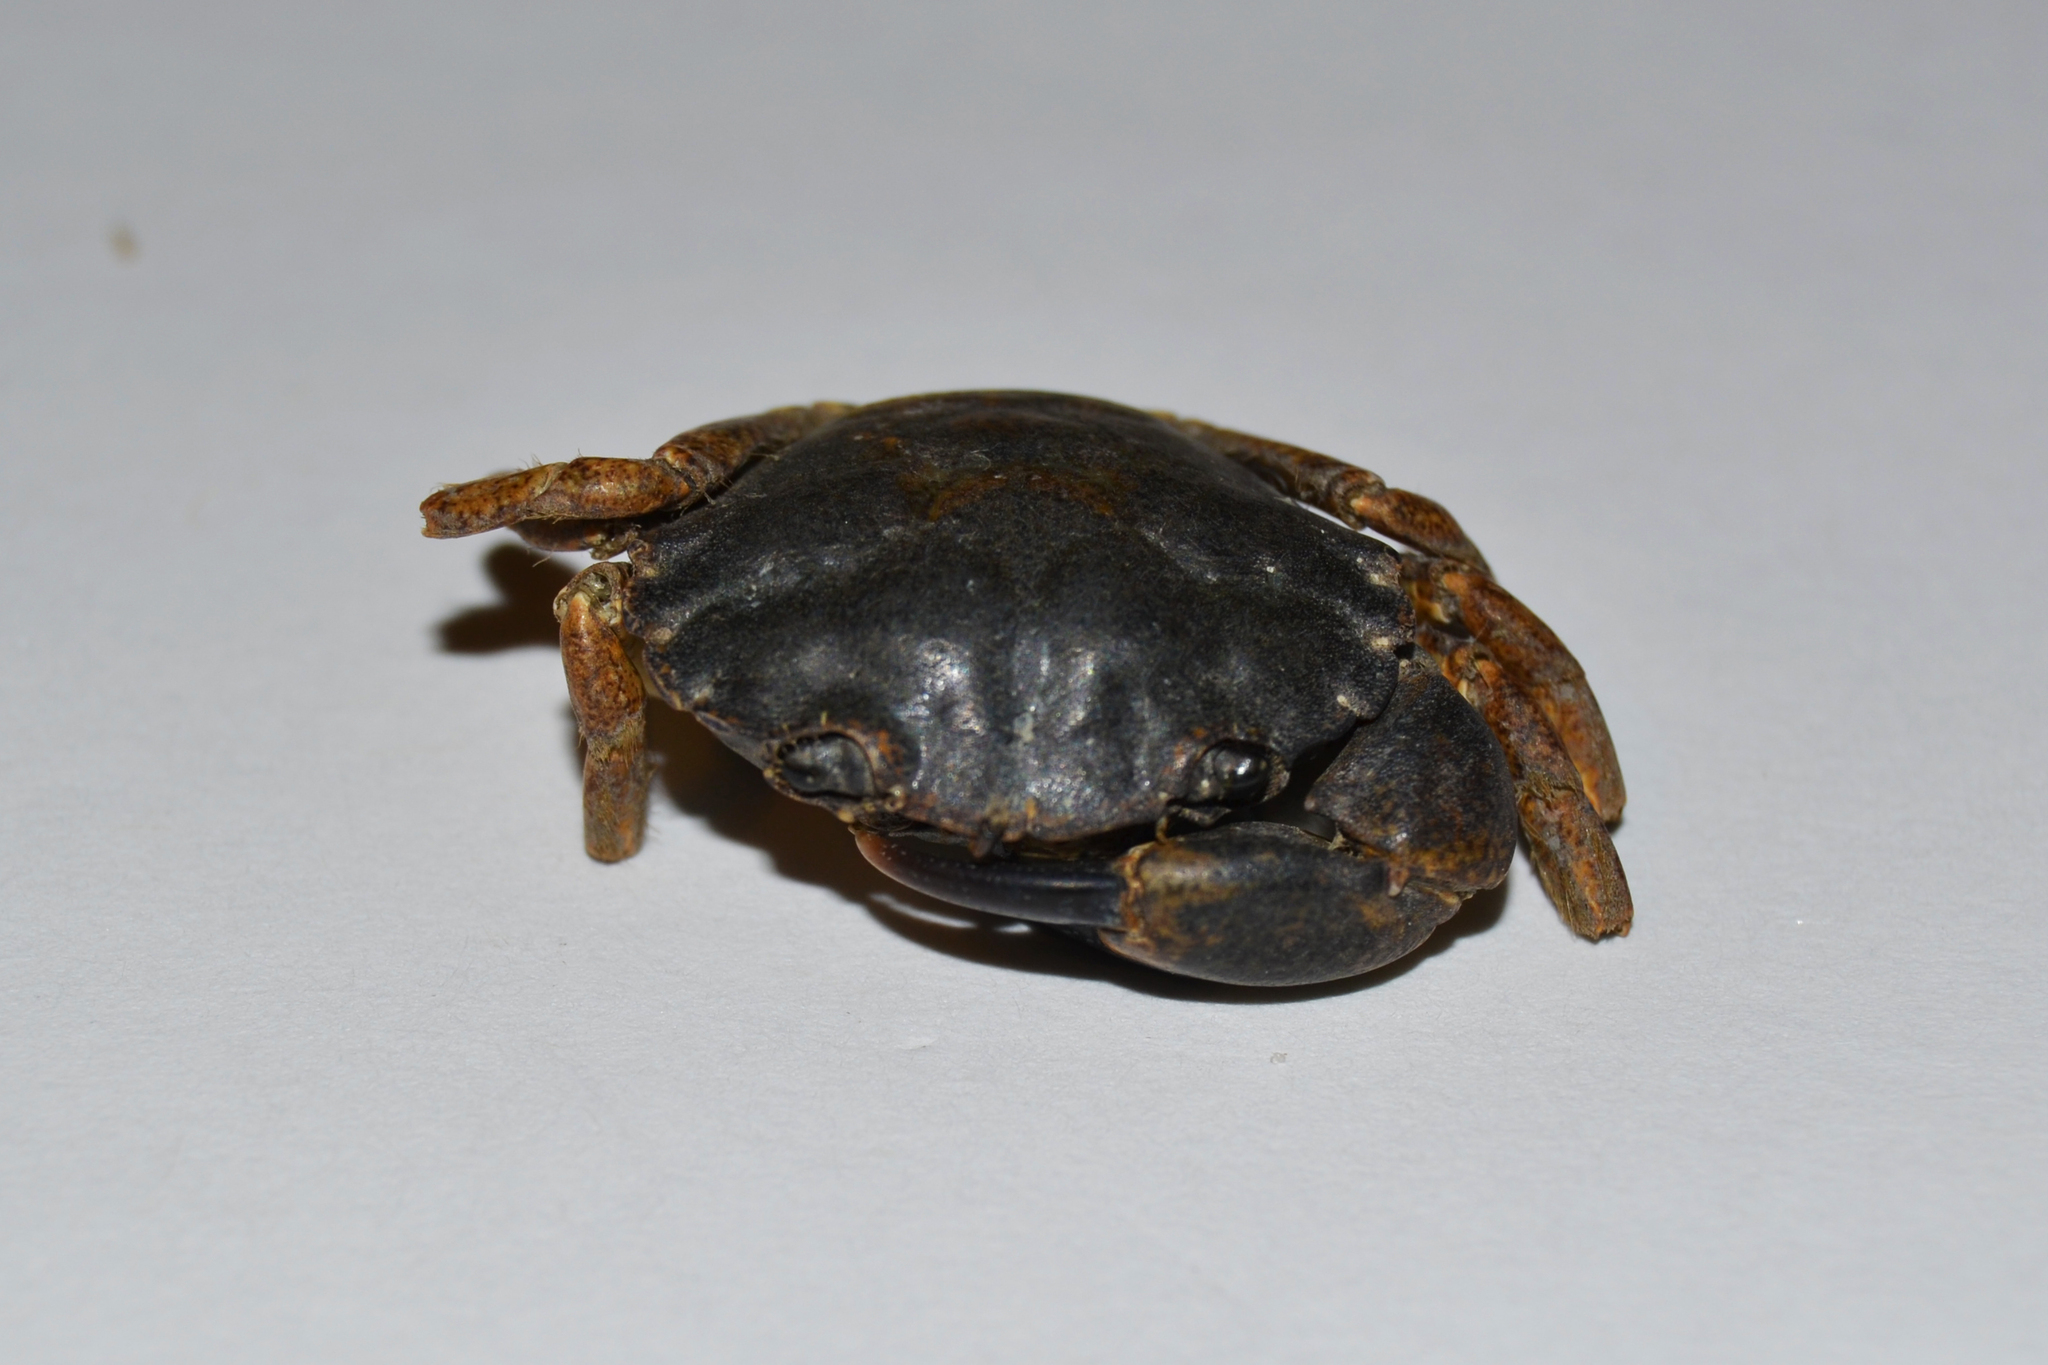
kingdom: Animalia
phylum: Arthropoda
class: Malacostraca
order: Decapoda
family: Carcinidae
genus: Carcinus
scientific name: Carcinus maenas
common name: European green crab
